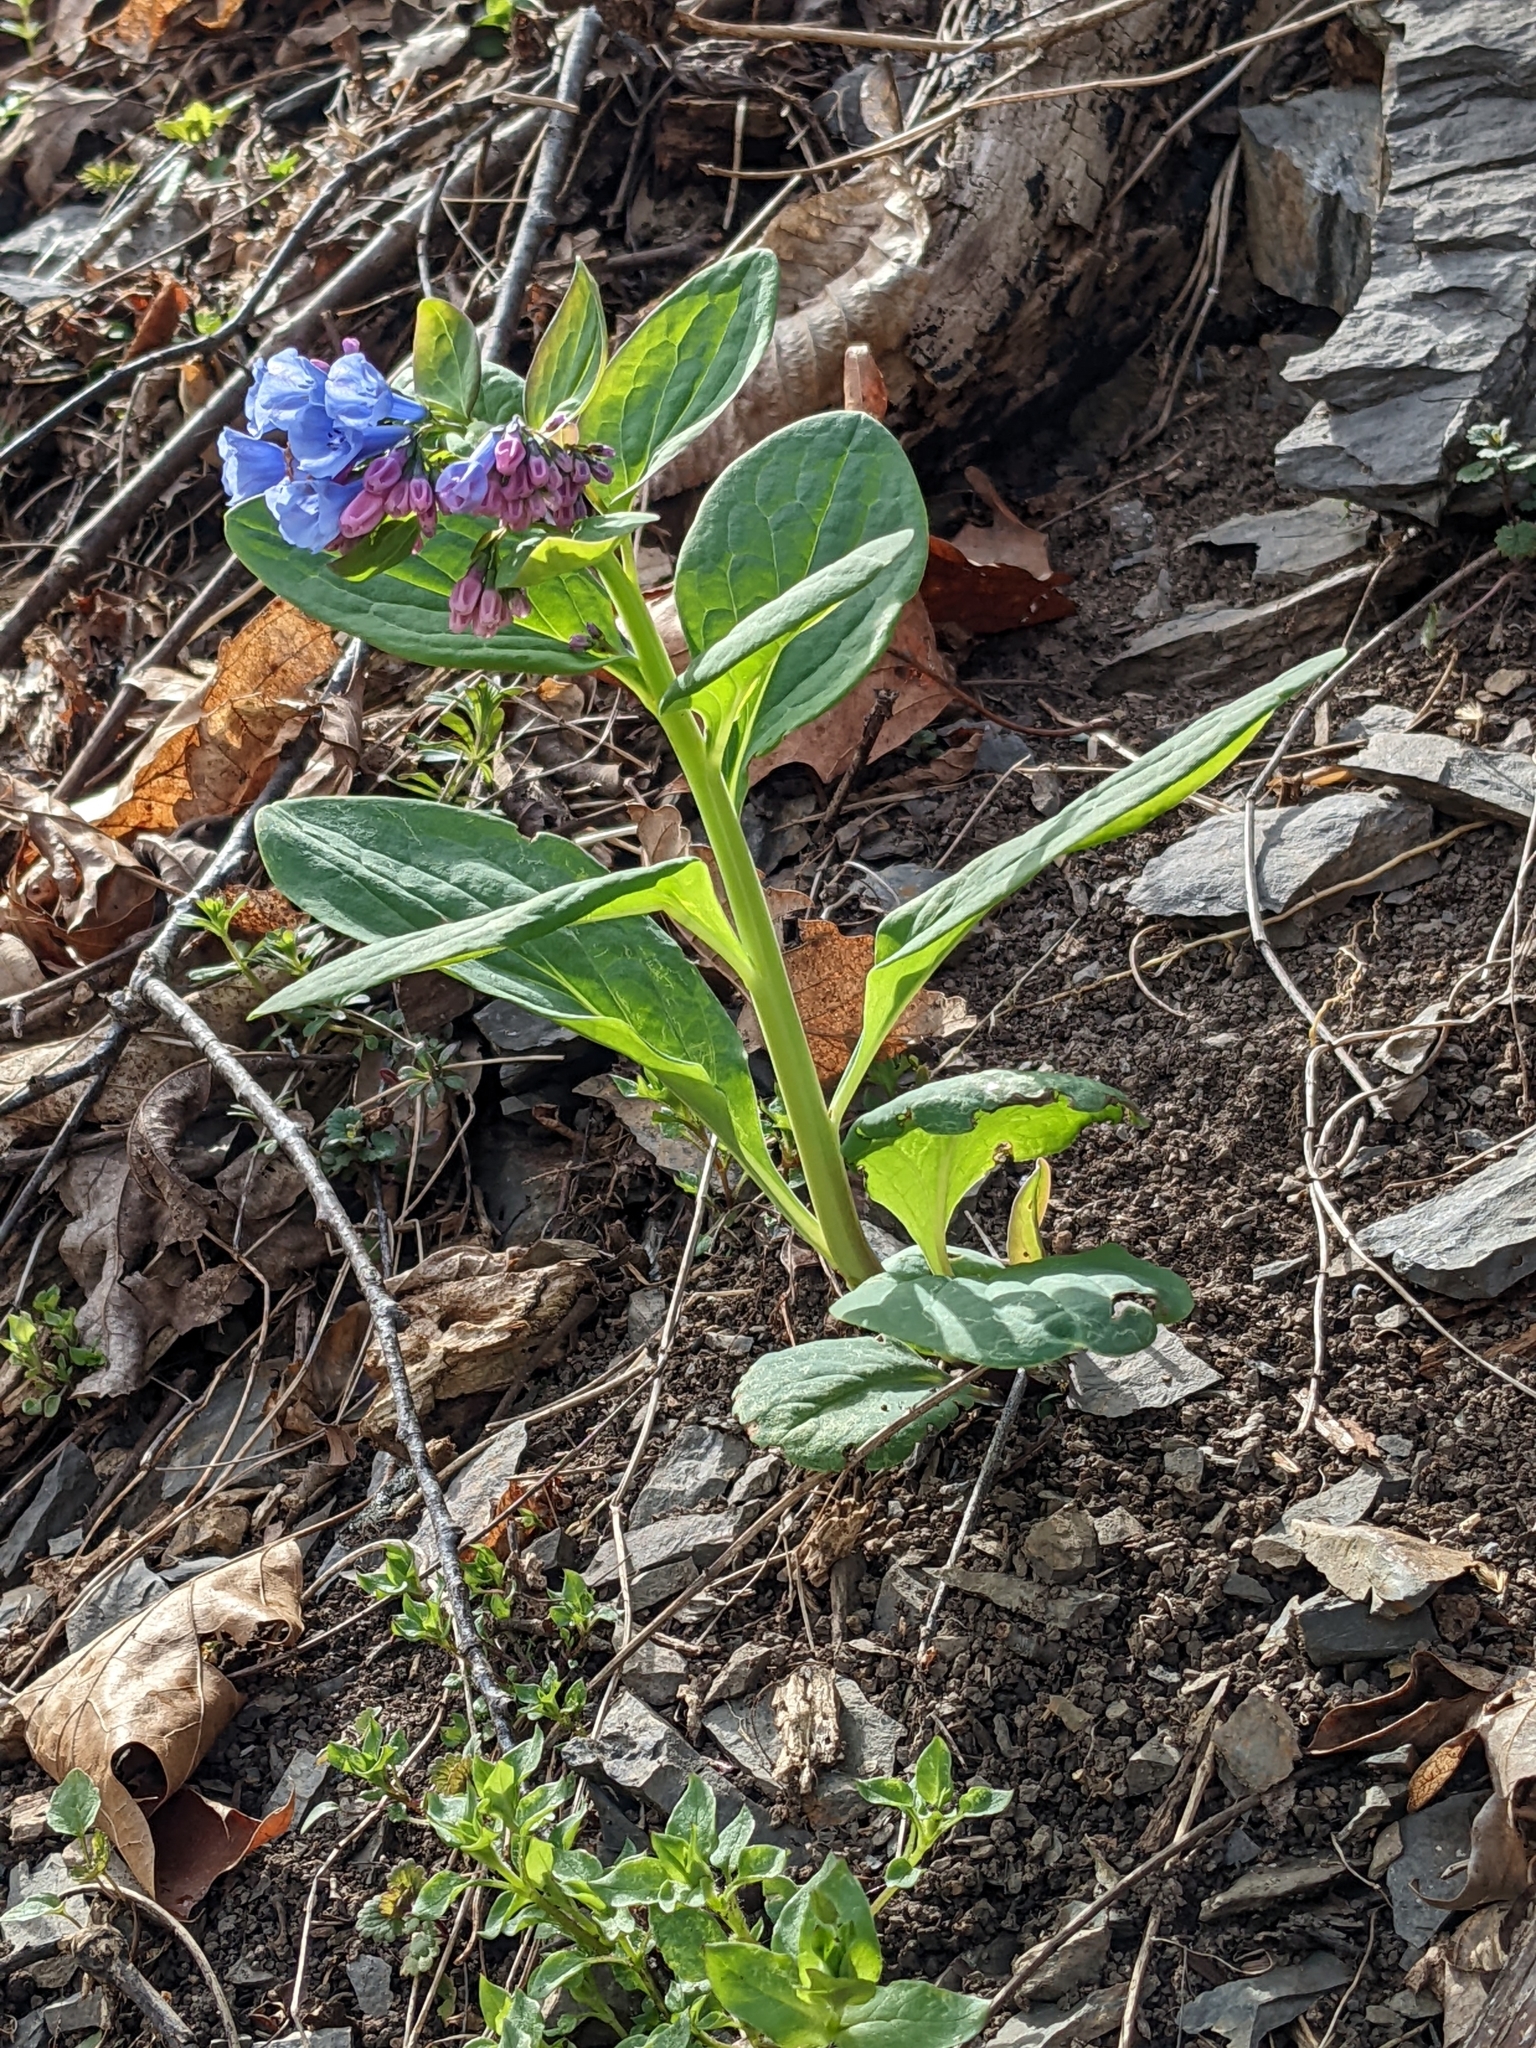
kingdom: Plantae
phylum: Tracheophyta
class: Magnoliopsida
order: Boraginales
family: Boraginaceae
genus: Mertensia
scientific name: Mertensia virginica
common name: Virginia bluebells
